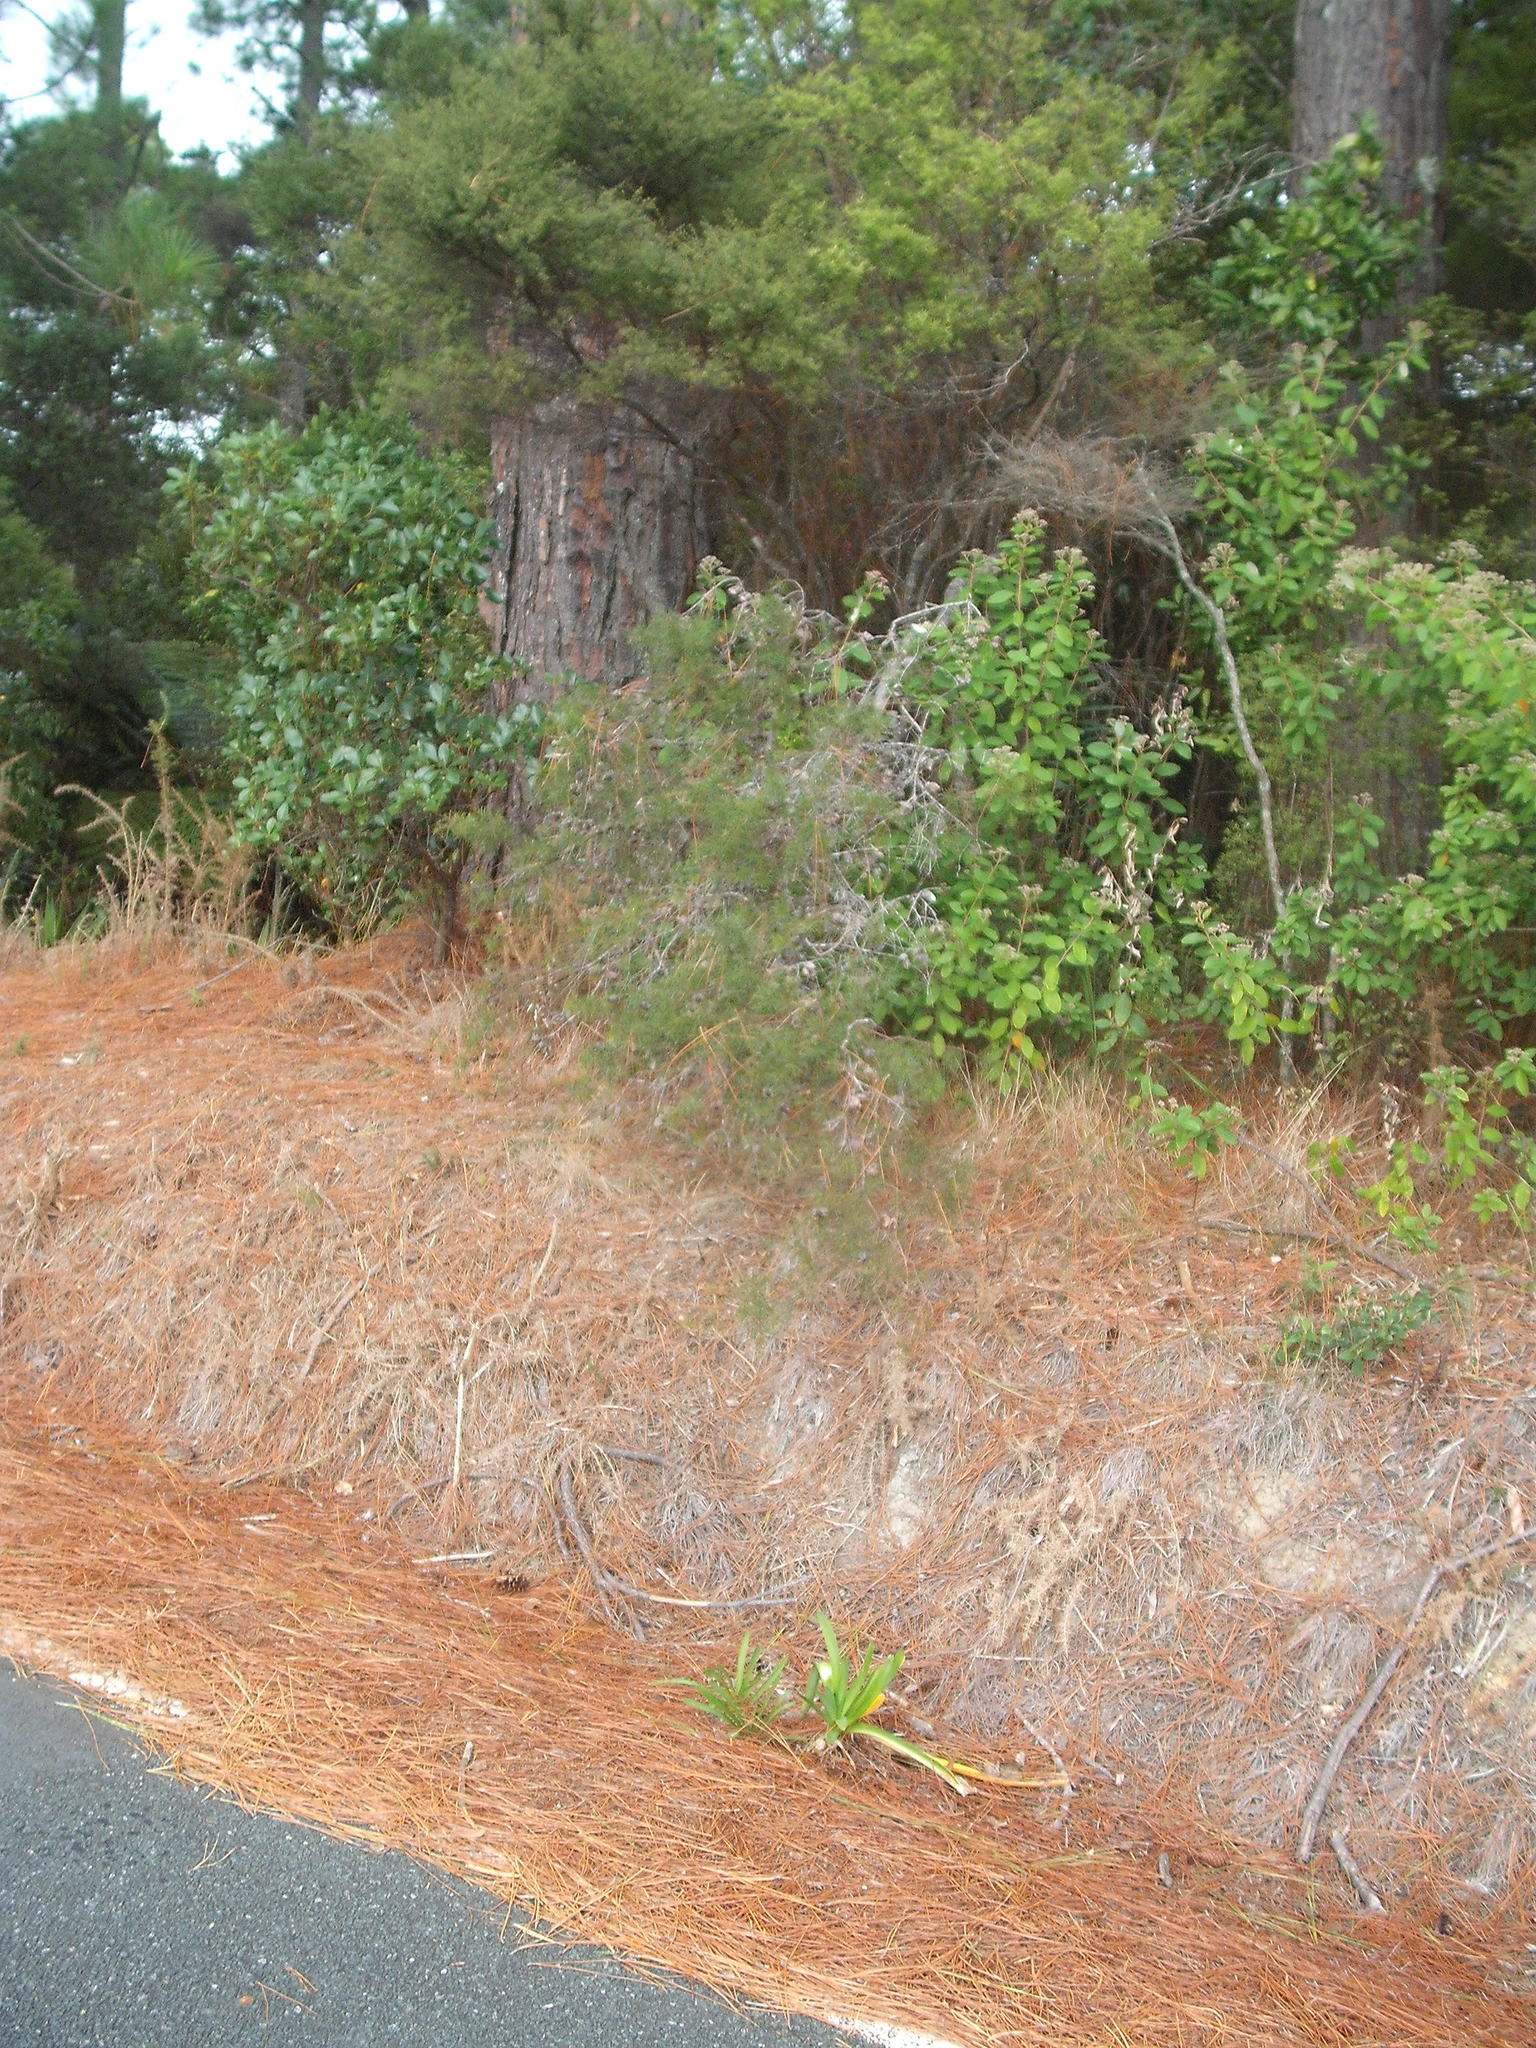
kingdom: Plantae
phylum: Tracheophyta
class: Magnoliopsida
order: Proteales
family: Proteaceae
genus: Hakea
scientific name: Hakea sericea
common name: Needle bush
